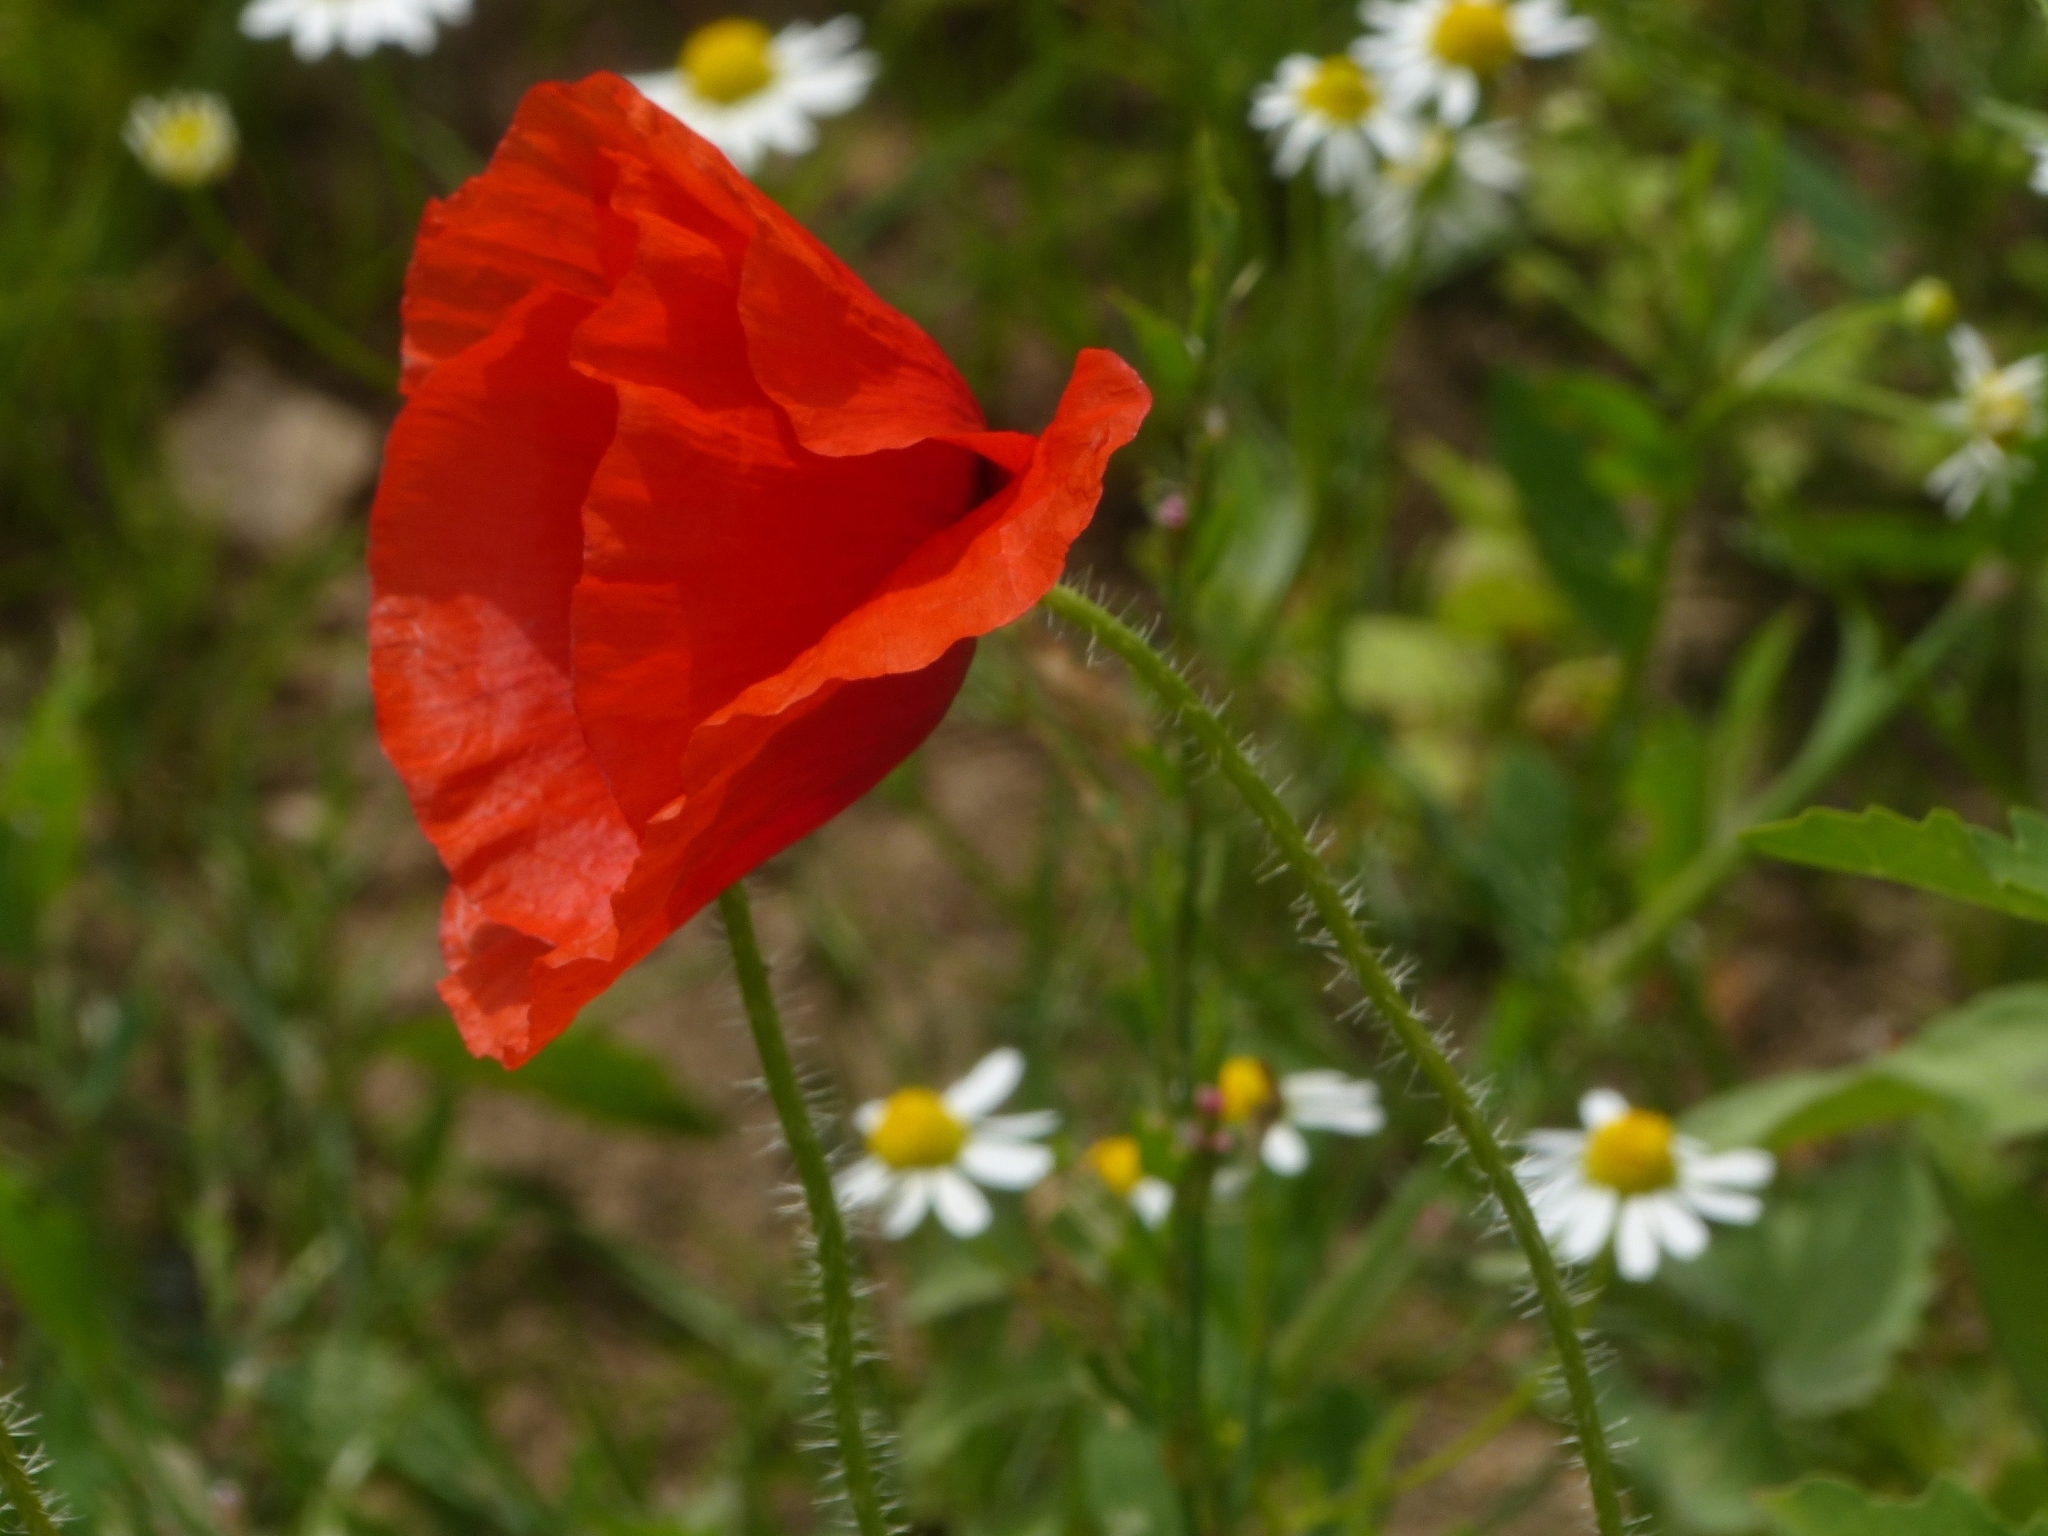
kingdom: Plantae
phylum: Tracheophyta
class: Magnoliopsida
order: Ranunculales
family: Papaveraceae
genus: Papaver
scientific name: Papaver rhoeas
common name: Corn poppy
